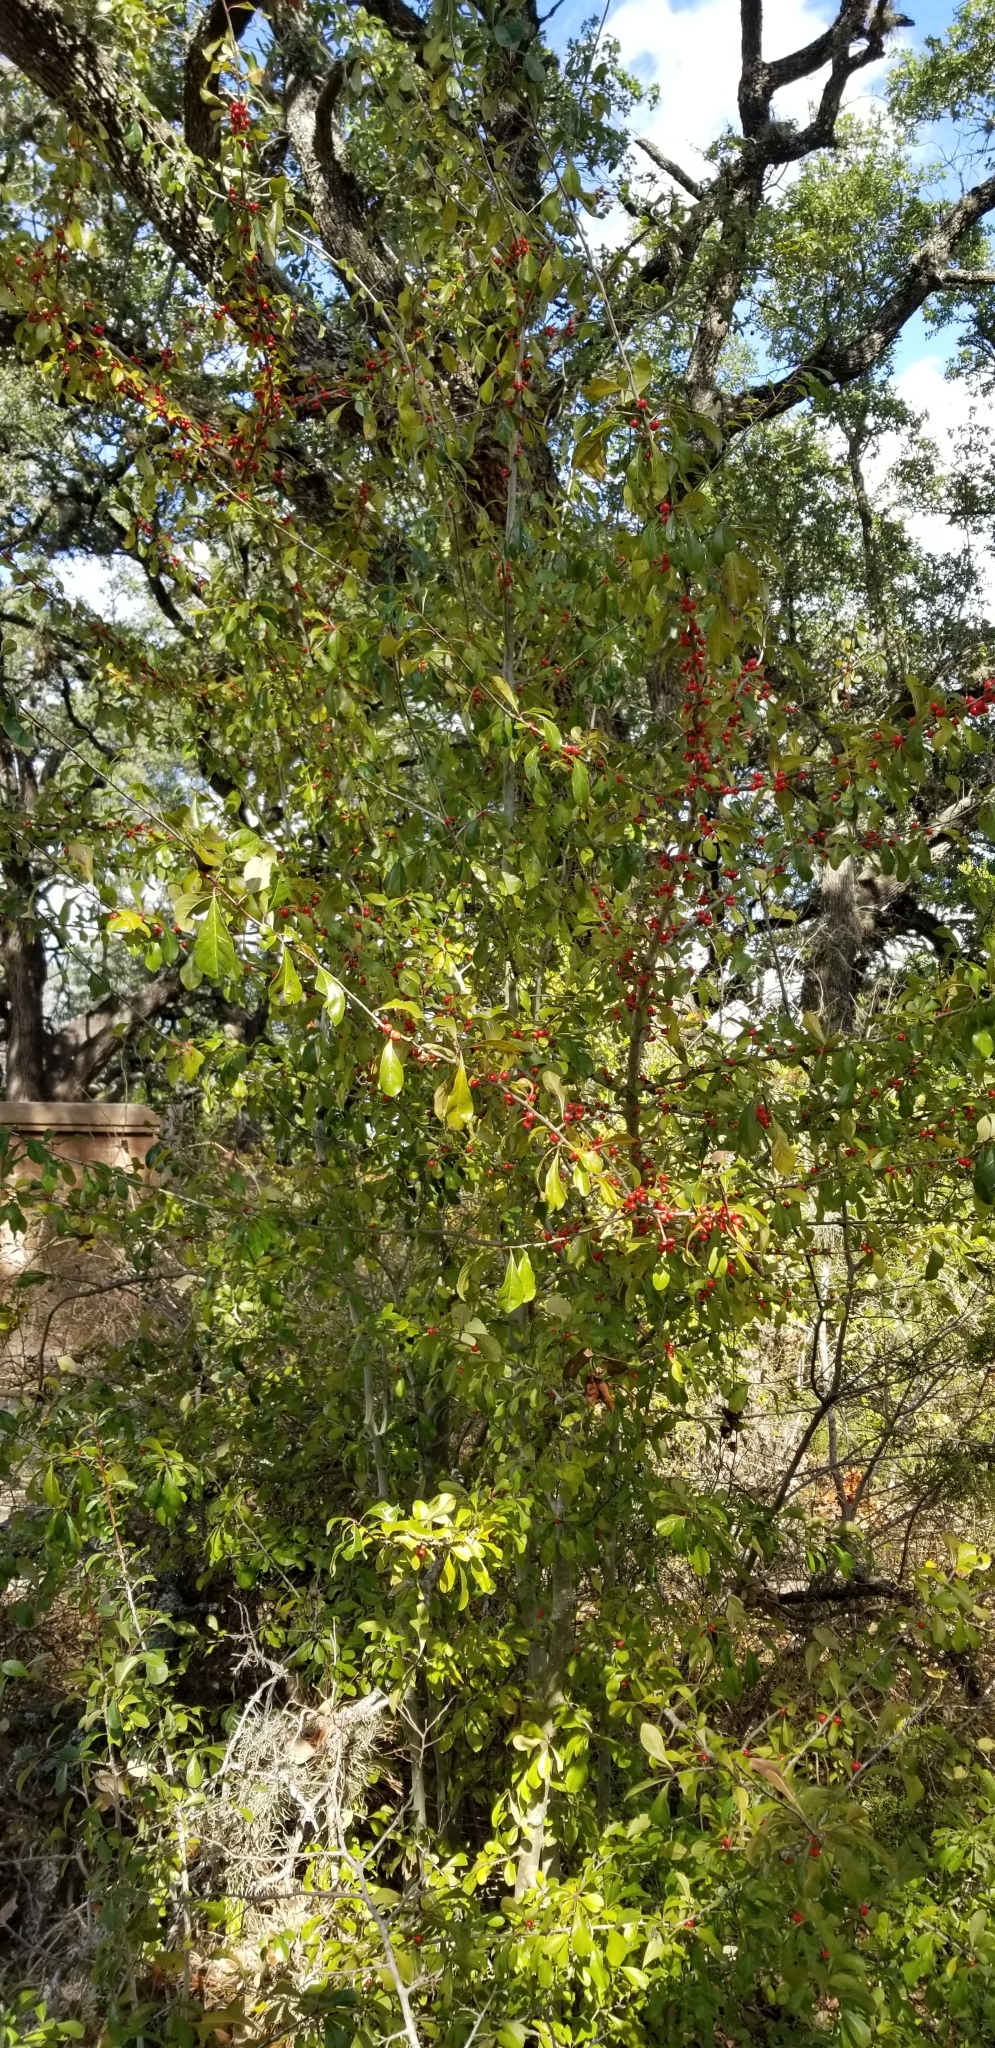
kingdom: Plantae
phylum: Tracheophyta
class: Magnoliopsida
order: Aquifoliales
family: Aquifoliaceae
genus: Ilex
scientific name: Ilex decidua
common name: Possum-haw
